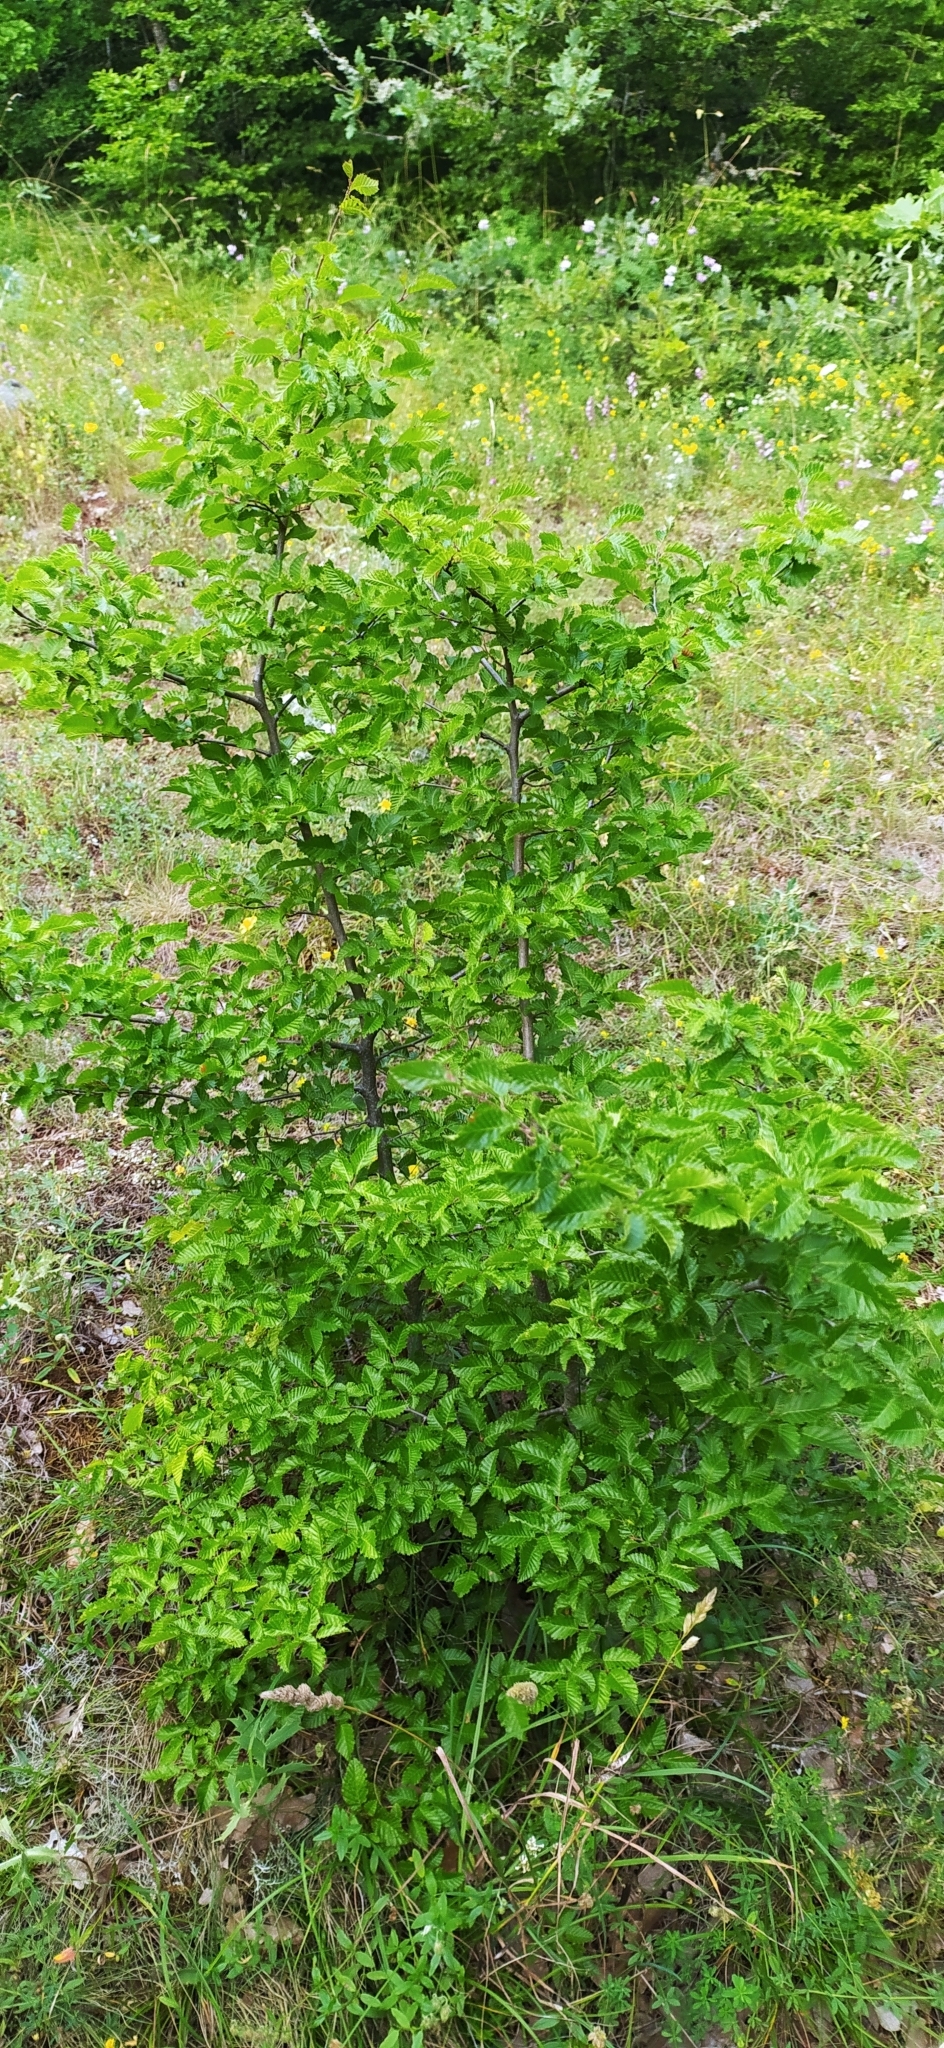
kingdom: Plantae
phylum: Tracheophyta
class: Magnoliopsida
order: Fagales
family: Betulaceae
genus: Carpinus
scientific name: Carpinus orientalis
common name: Eastern hornbeam
